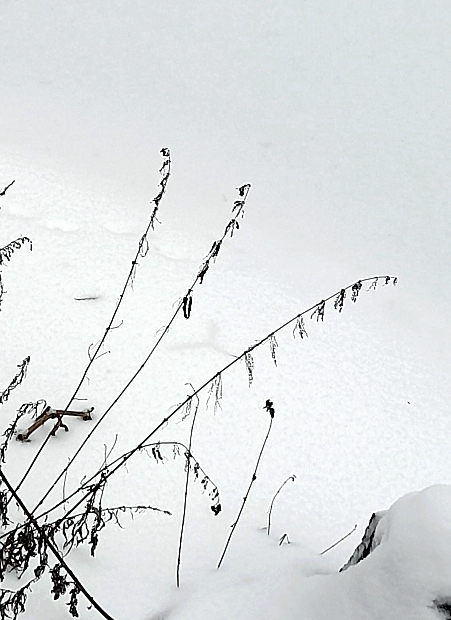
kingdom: Plantae
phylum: Tracheophyta
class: Magnoliopsida
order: Rosales
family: Urticaceae
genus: Urtica
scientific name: Urtica dioica
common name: Common nettle
